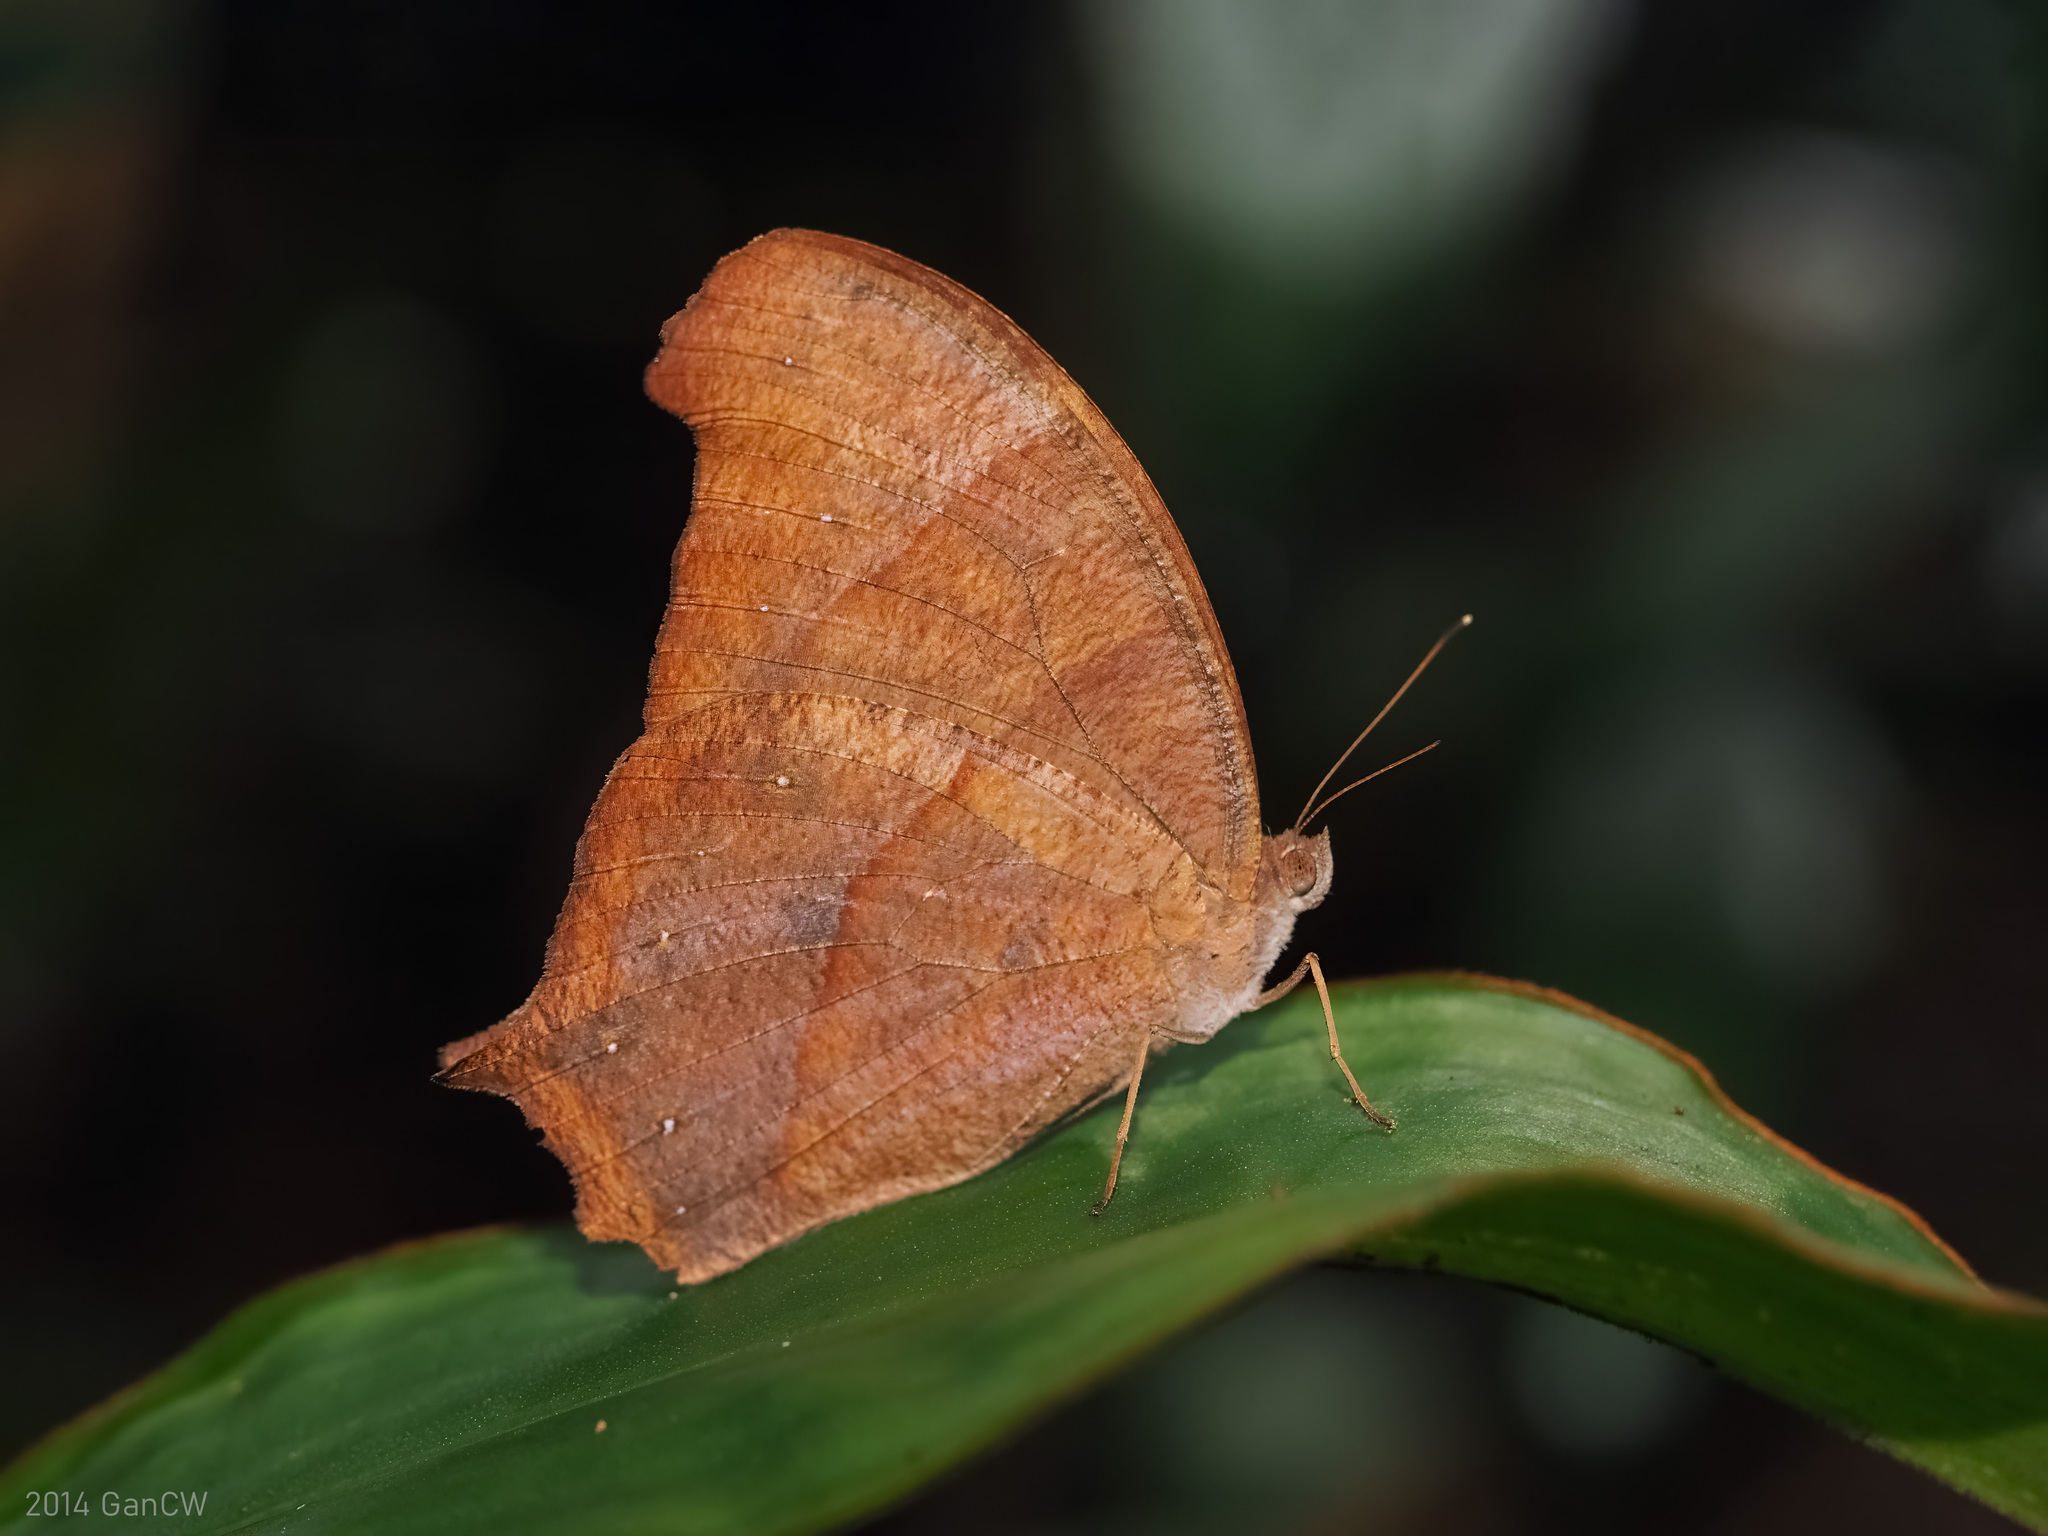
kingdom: Animalia
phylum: Arthropoda
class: Insecta
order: Lepidoptera
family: Nymphalidae
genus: Melanitis
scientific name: Melanitis phedima
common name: Dark evening brown
